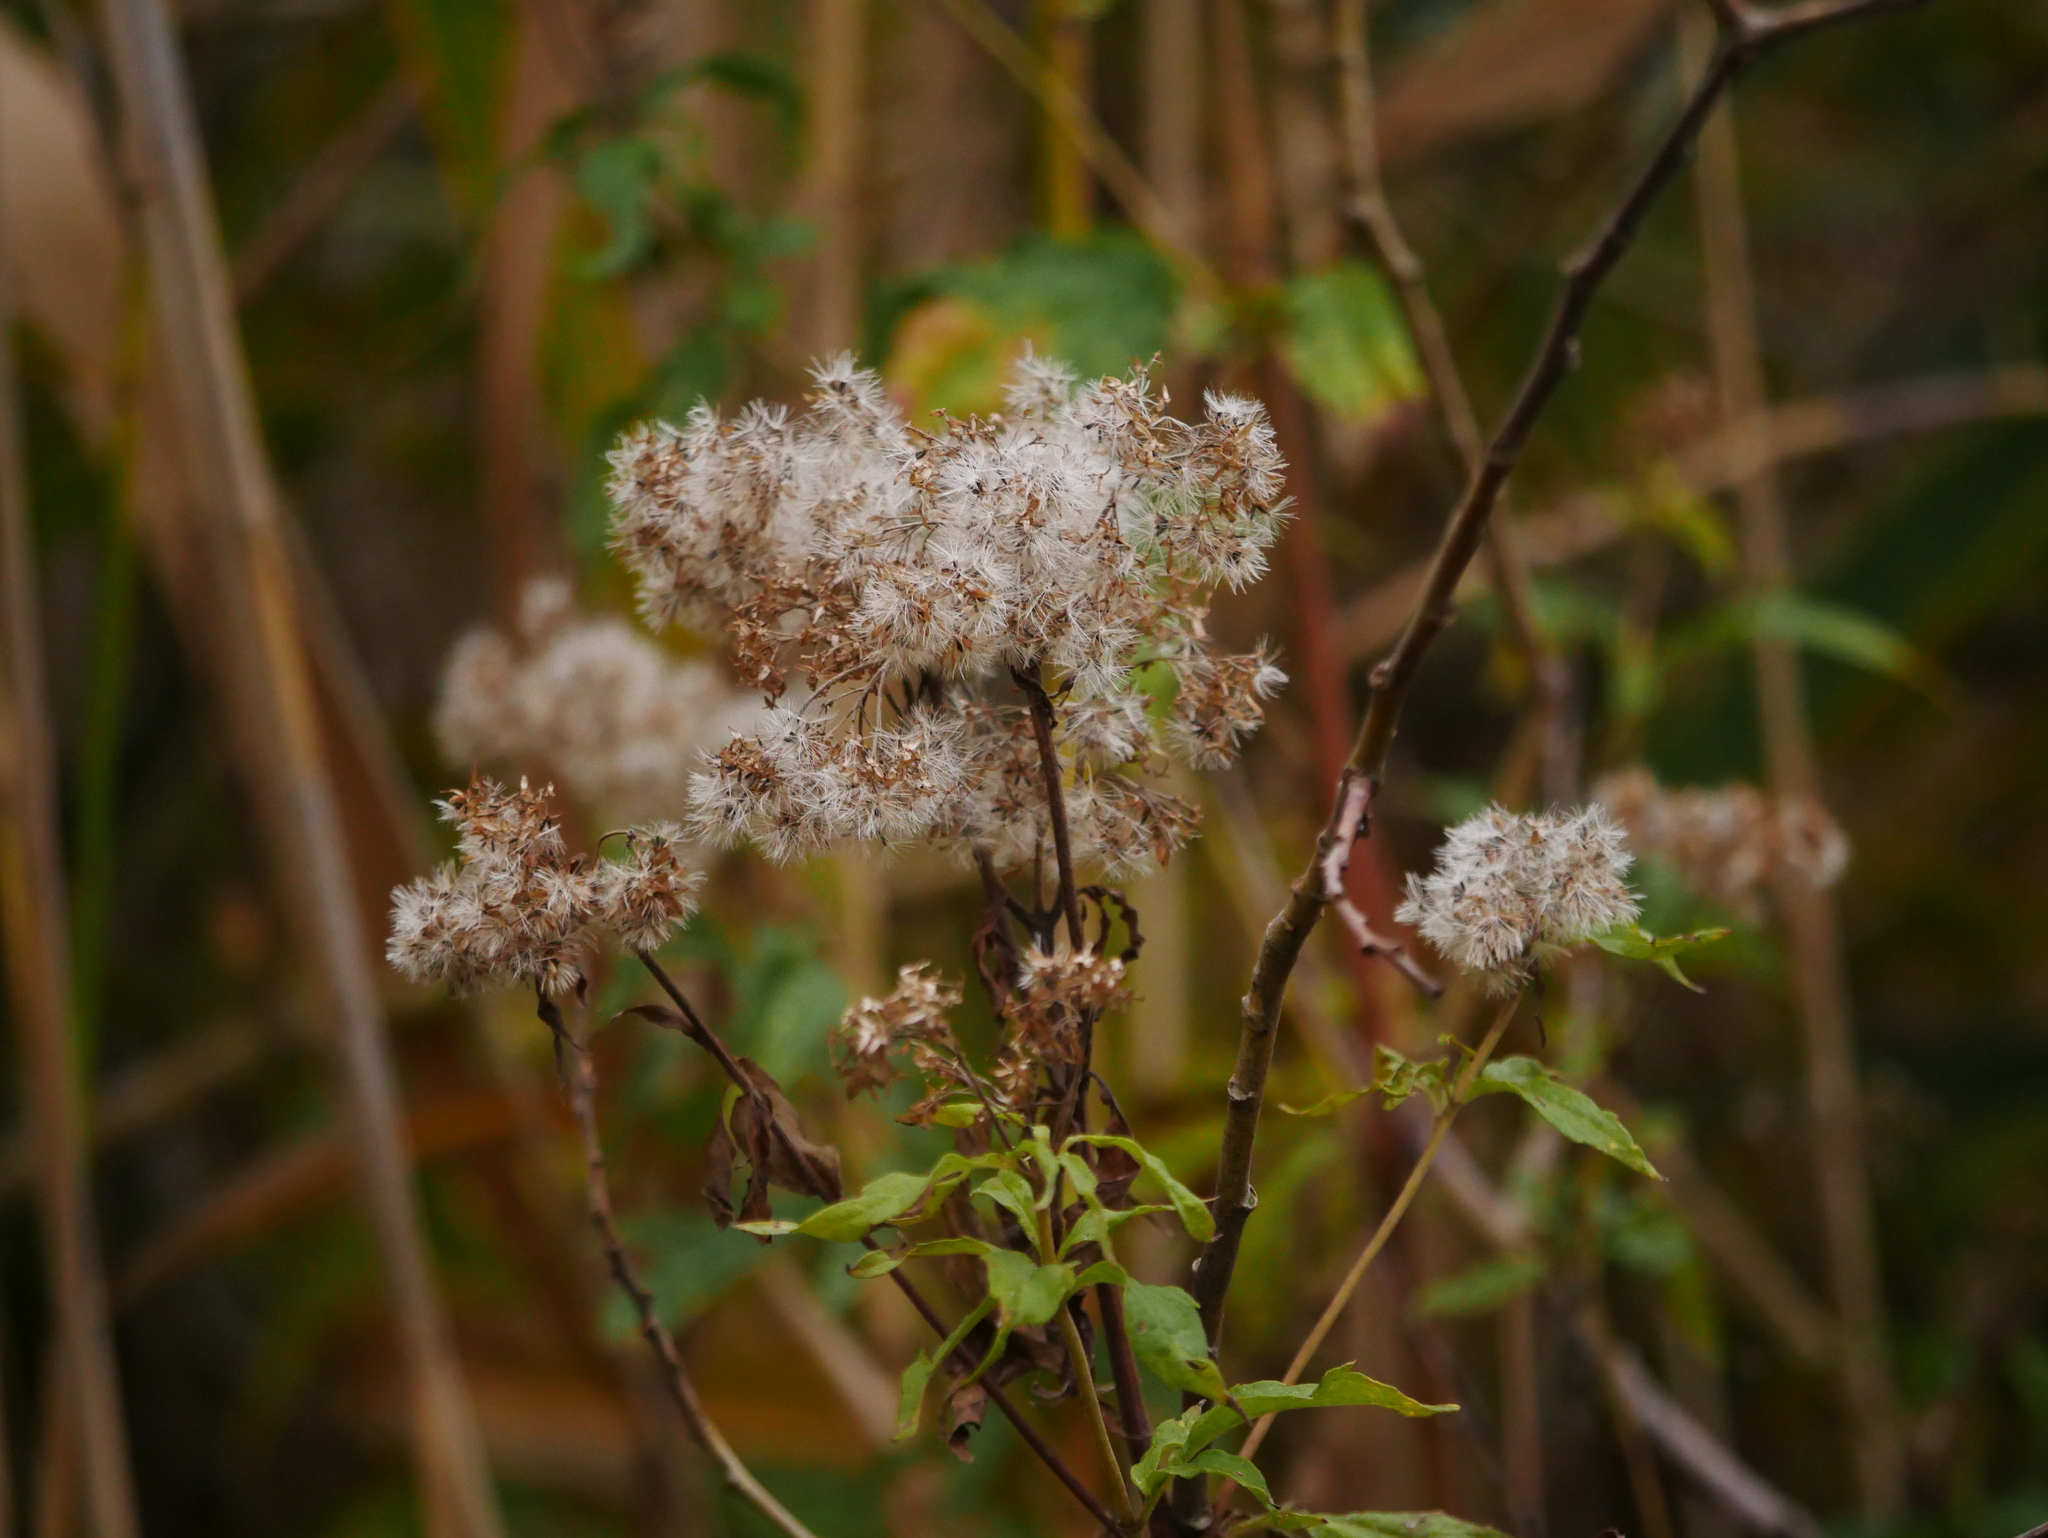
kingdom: Plantae
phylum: Tracheophyta
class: Magnoliopsida
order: Asterales
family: Asteraceae
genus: Eupatorium
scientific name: Eupatorium cannabinum
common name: Hemp-agrimony
